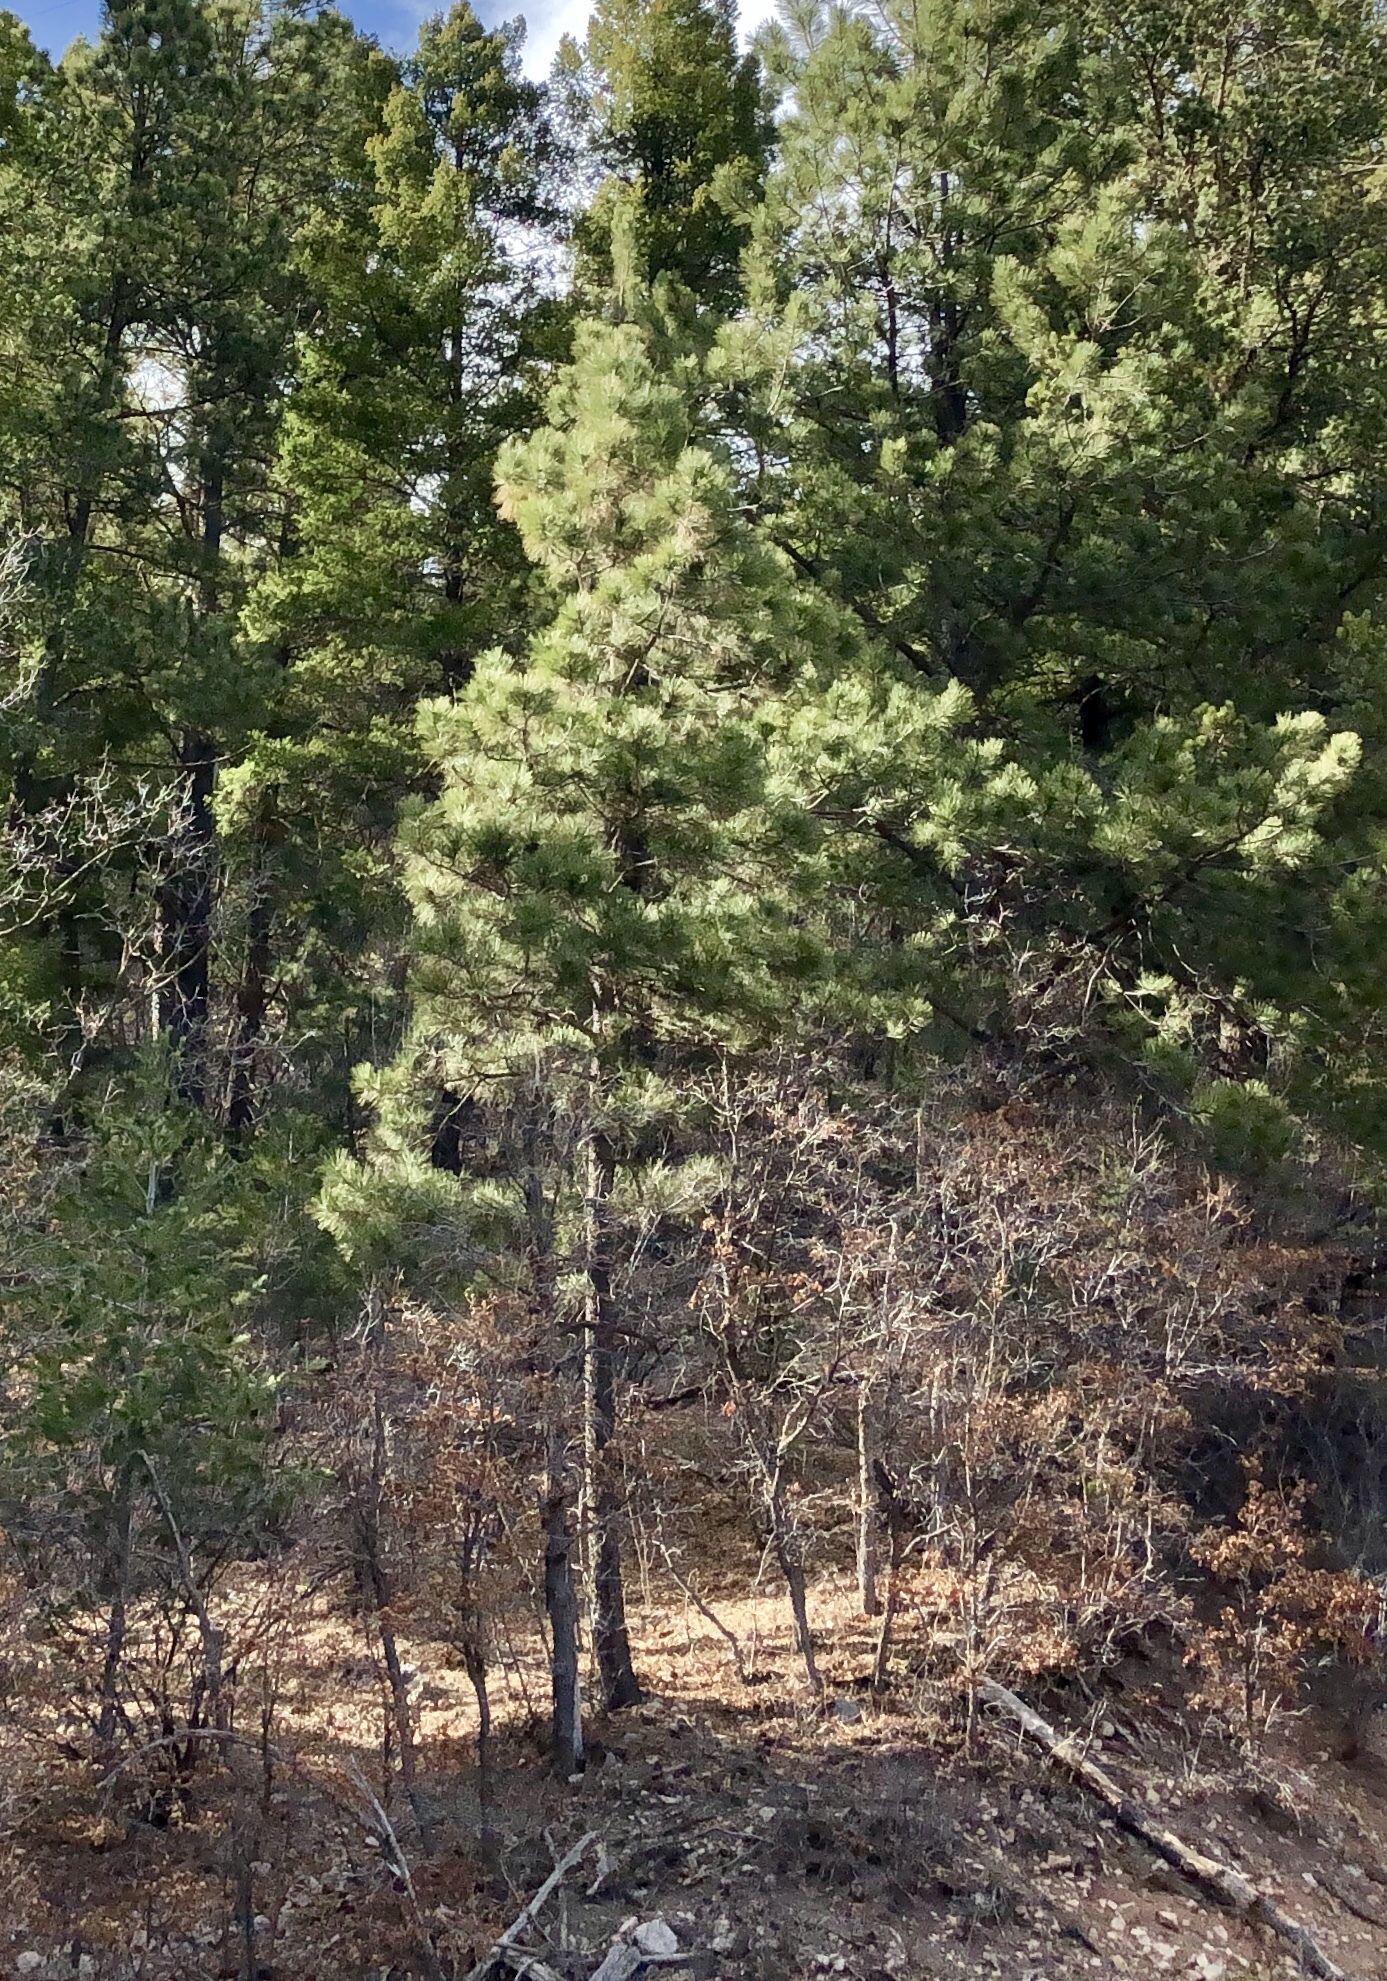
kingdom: Plantae
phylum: Tracheophyta
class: Pinopsida
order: Pinales
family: Pinaceae
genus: Pinus
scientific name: Pinus ponderosa
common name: Western yellow-pine
